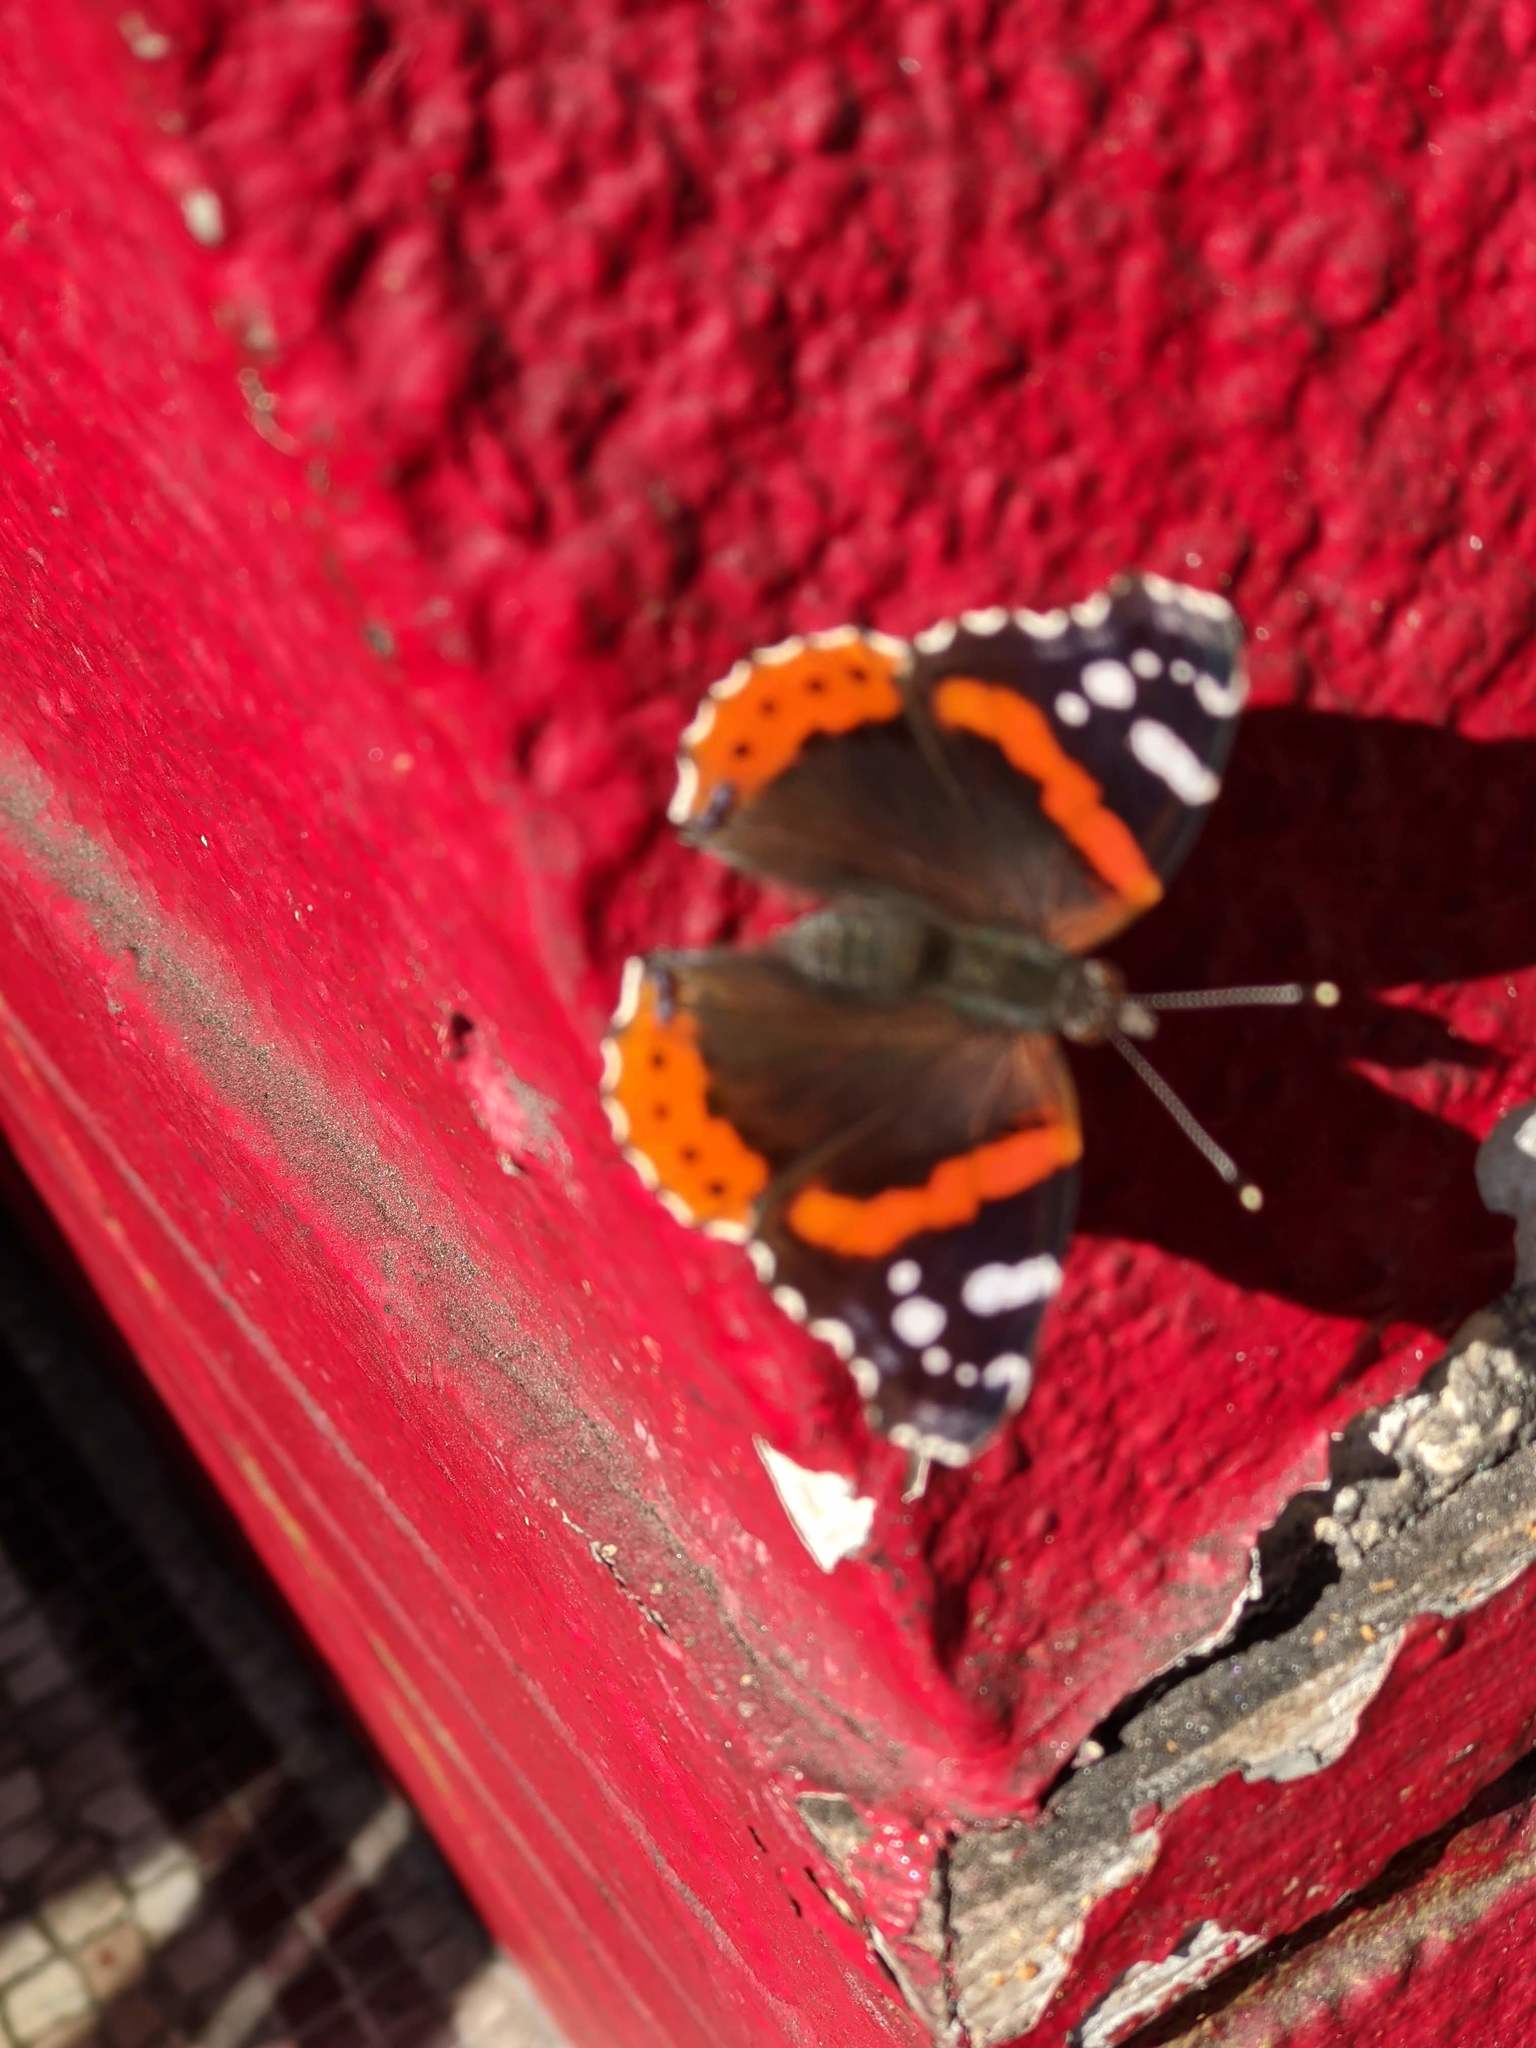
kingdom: Animalia
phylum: Arthropoda
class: Insecta
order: Lepidoptera
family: Nymphalidae
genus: Vanessa
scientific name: Vanessa atalanta
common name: Red admiral
